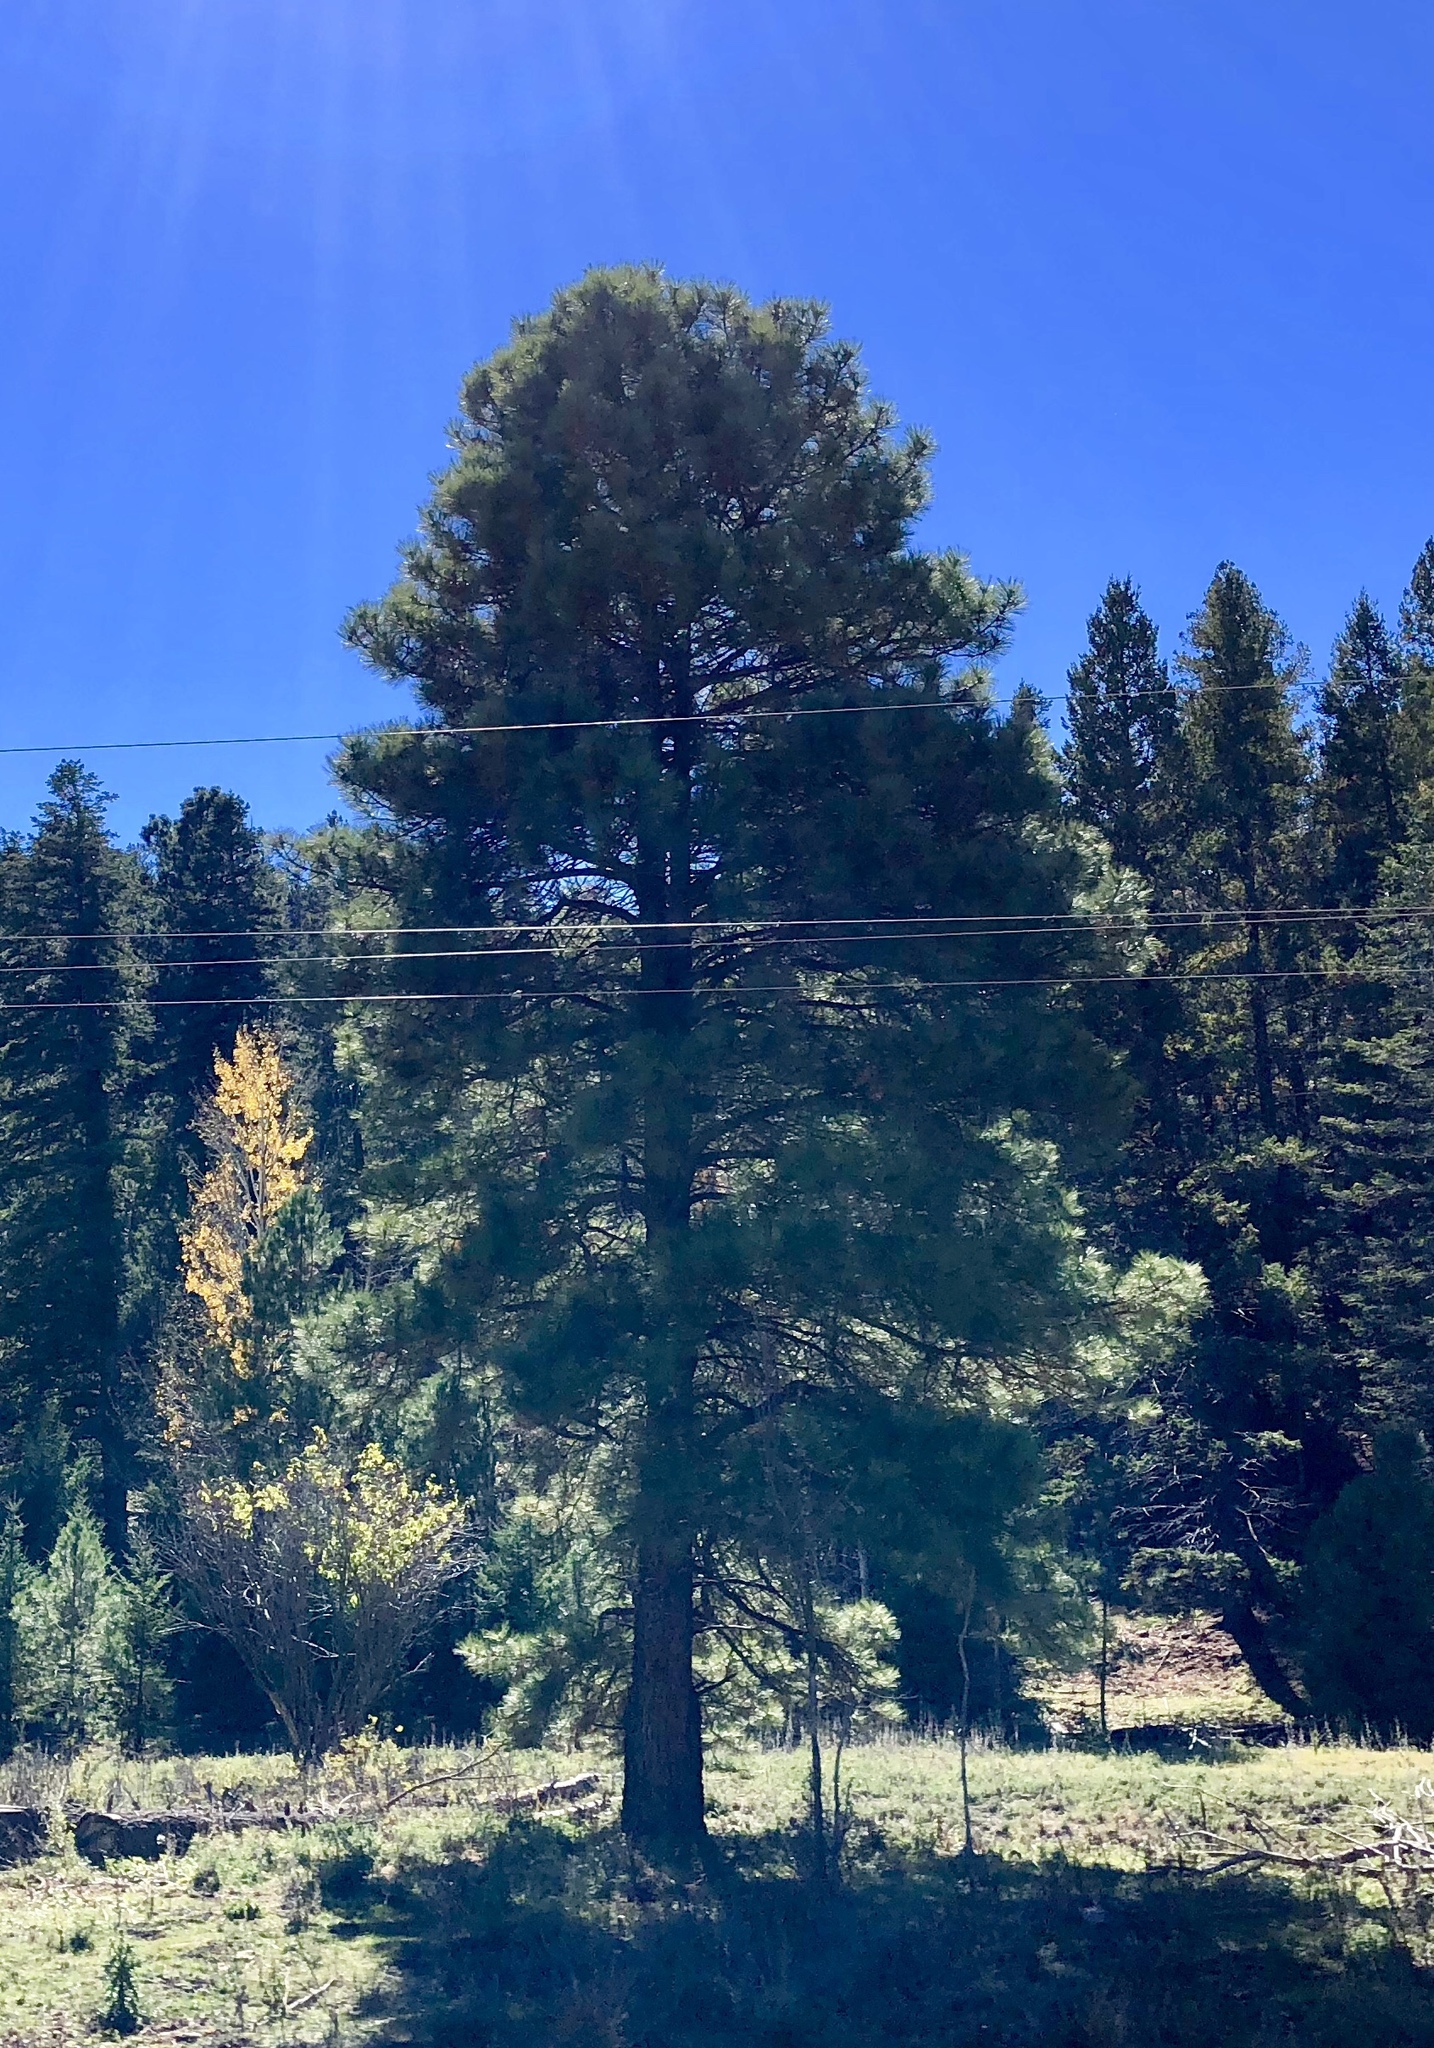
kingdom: Plantae
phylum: Tracheophyta
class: Pinopsida
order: Pinales
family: Pinaceae
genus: Pinus
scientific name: Pinus ponderosa
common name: Western yellow-pine
